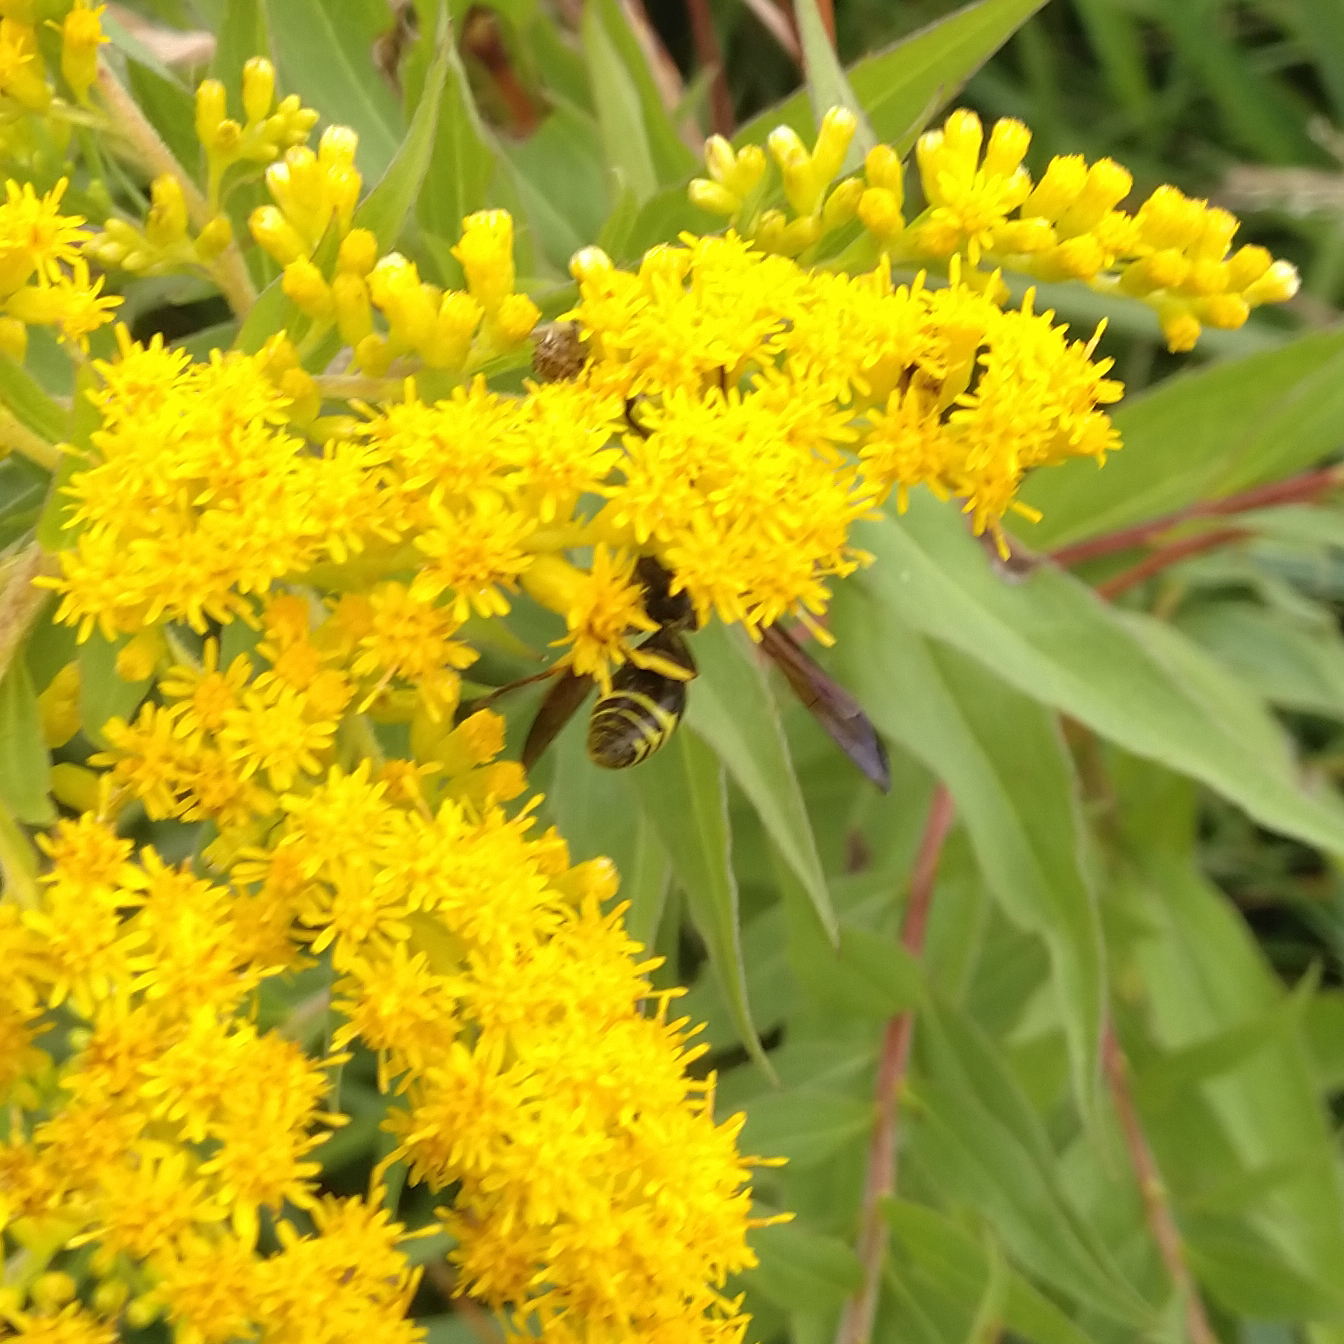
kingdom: Animalia
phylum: Arthropoda
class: Insecta
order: Hymenoptera
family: Vespidae
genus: Ancistrocerus
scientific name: Ancistrocerus
